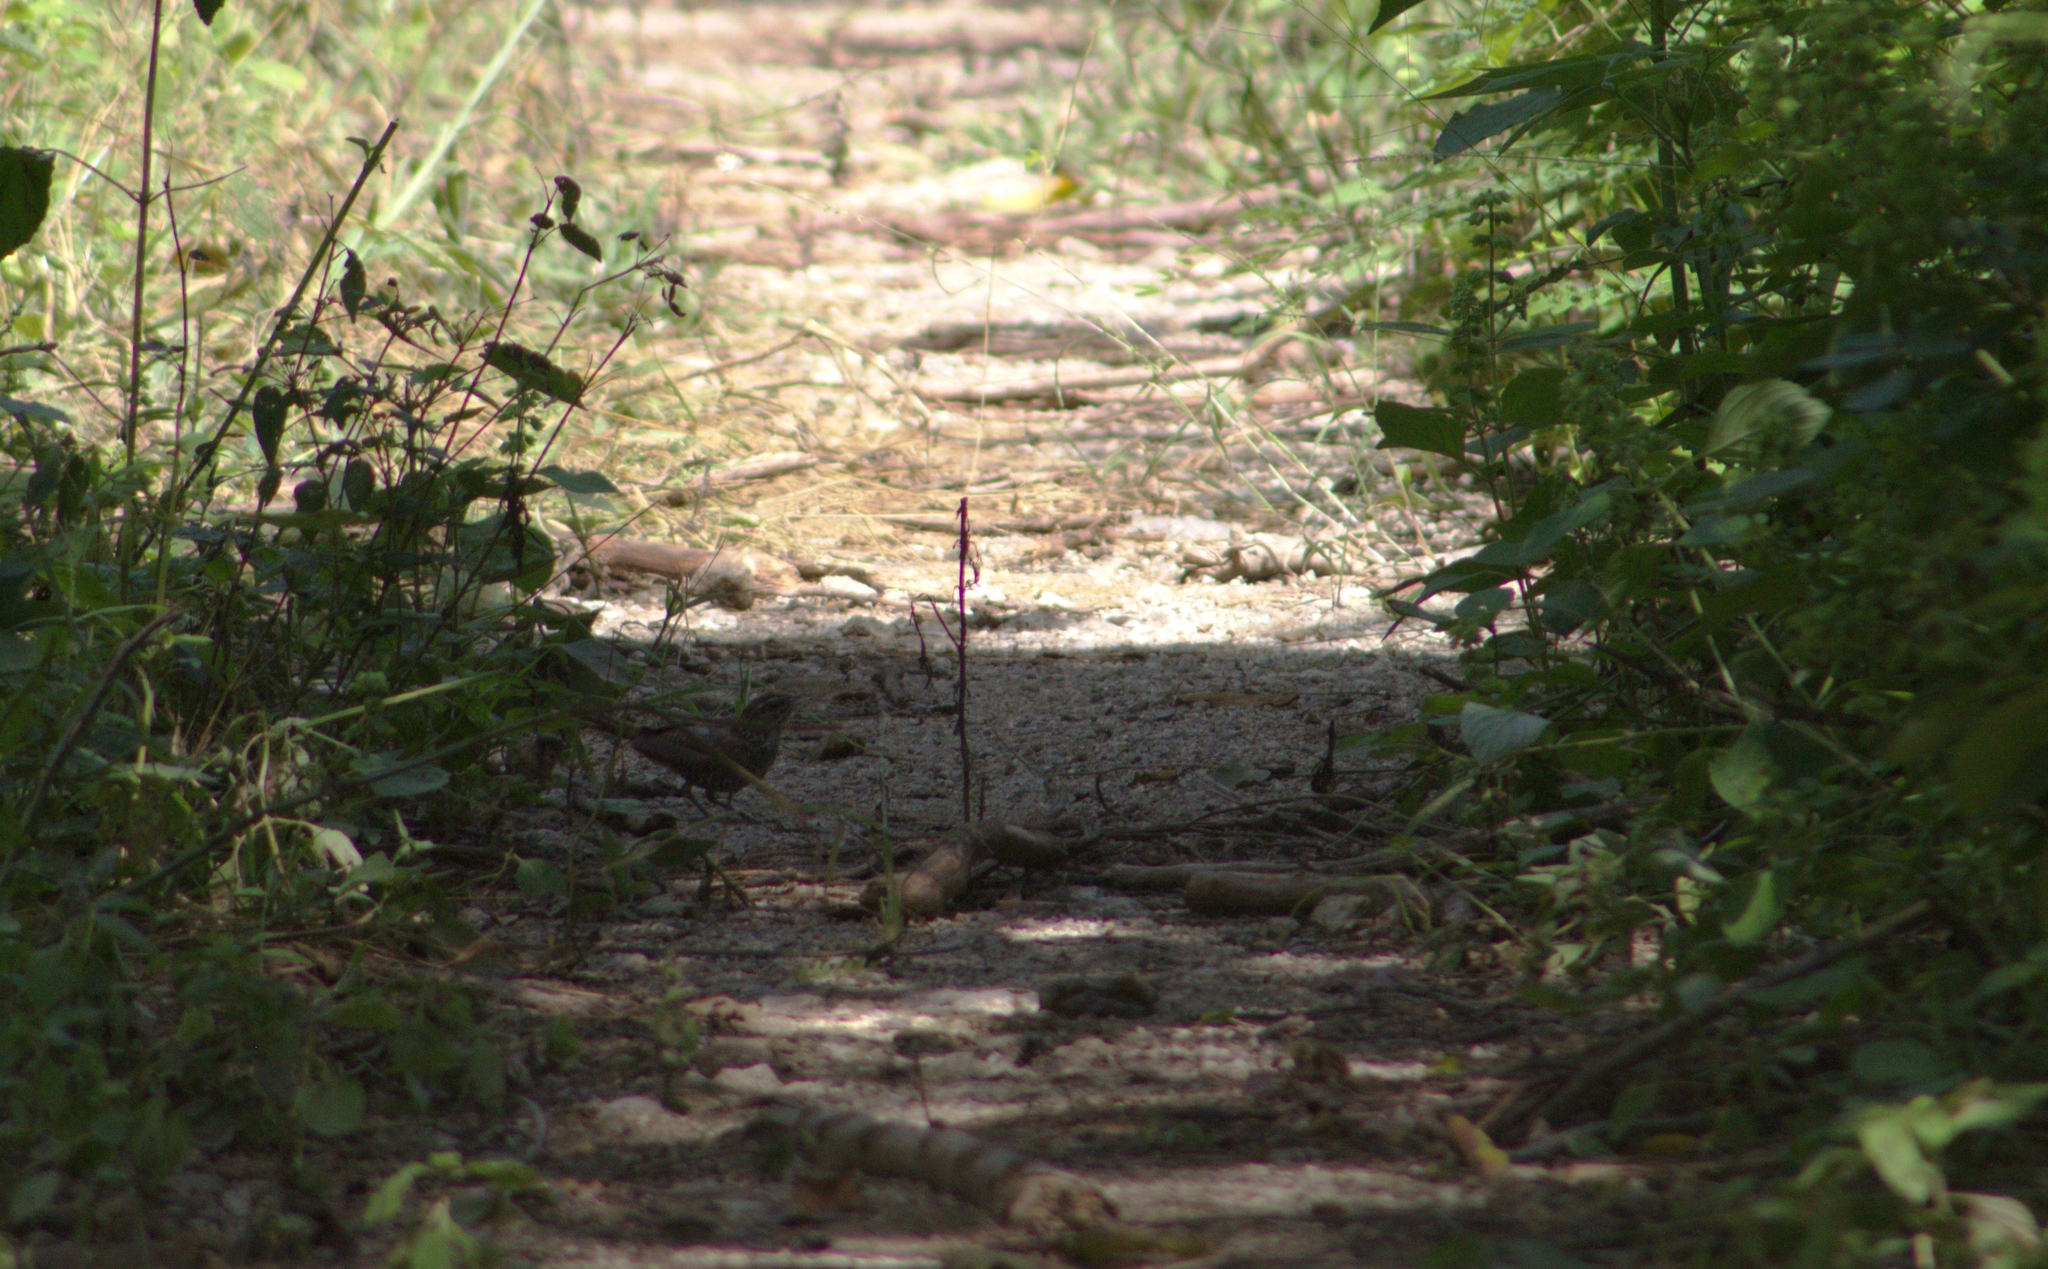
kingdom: Animalia
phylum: Chordata
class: Aves
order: Passeriformes
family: Troglodytidae
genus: Thryophilus
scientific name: Thryophilus pleurostictus
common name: Banded wren
